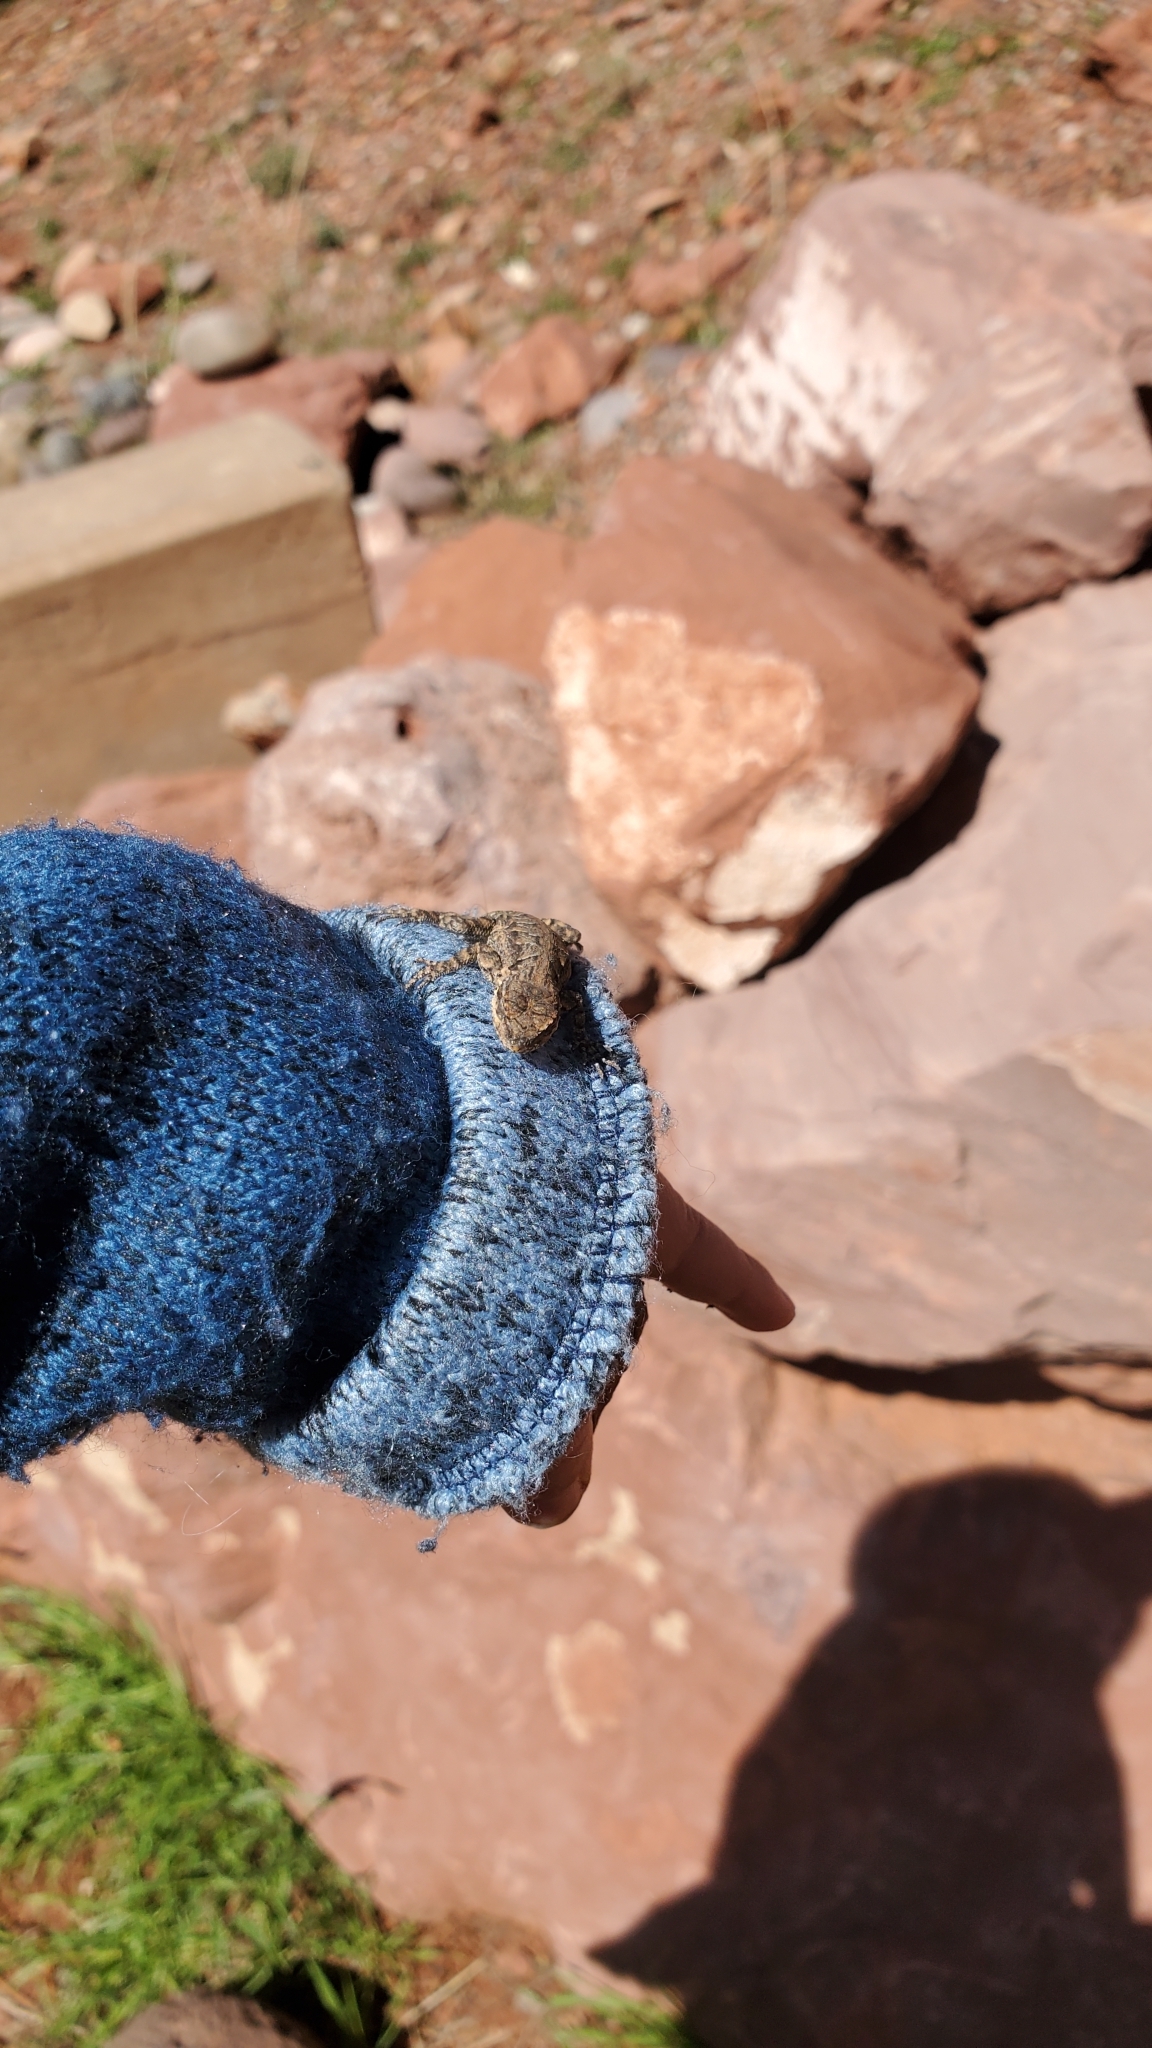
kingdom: Animalia
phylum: Chordata
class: Squamata
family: Phrynosomatidae
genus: Urosaurus
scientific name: Urosaurus ornatus
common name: Ornate tree lizard
